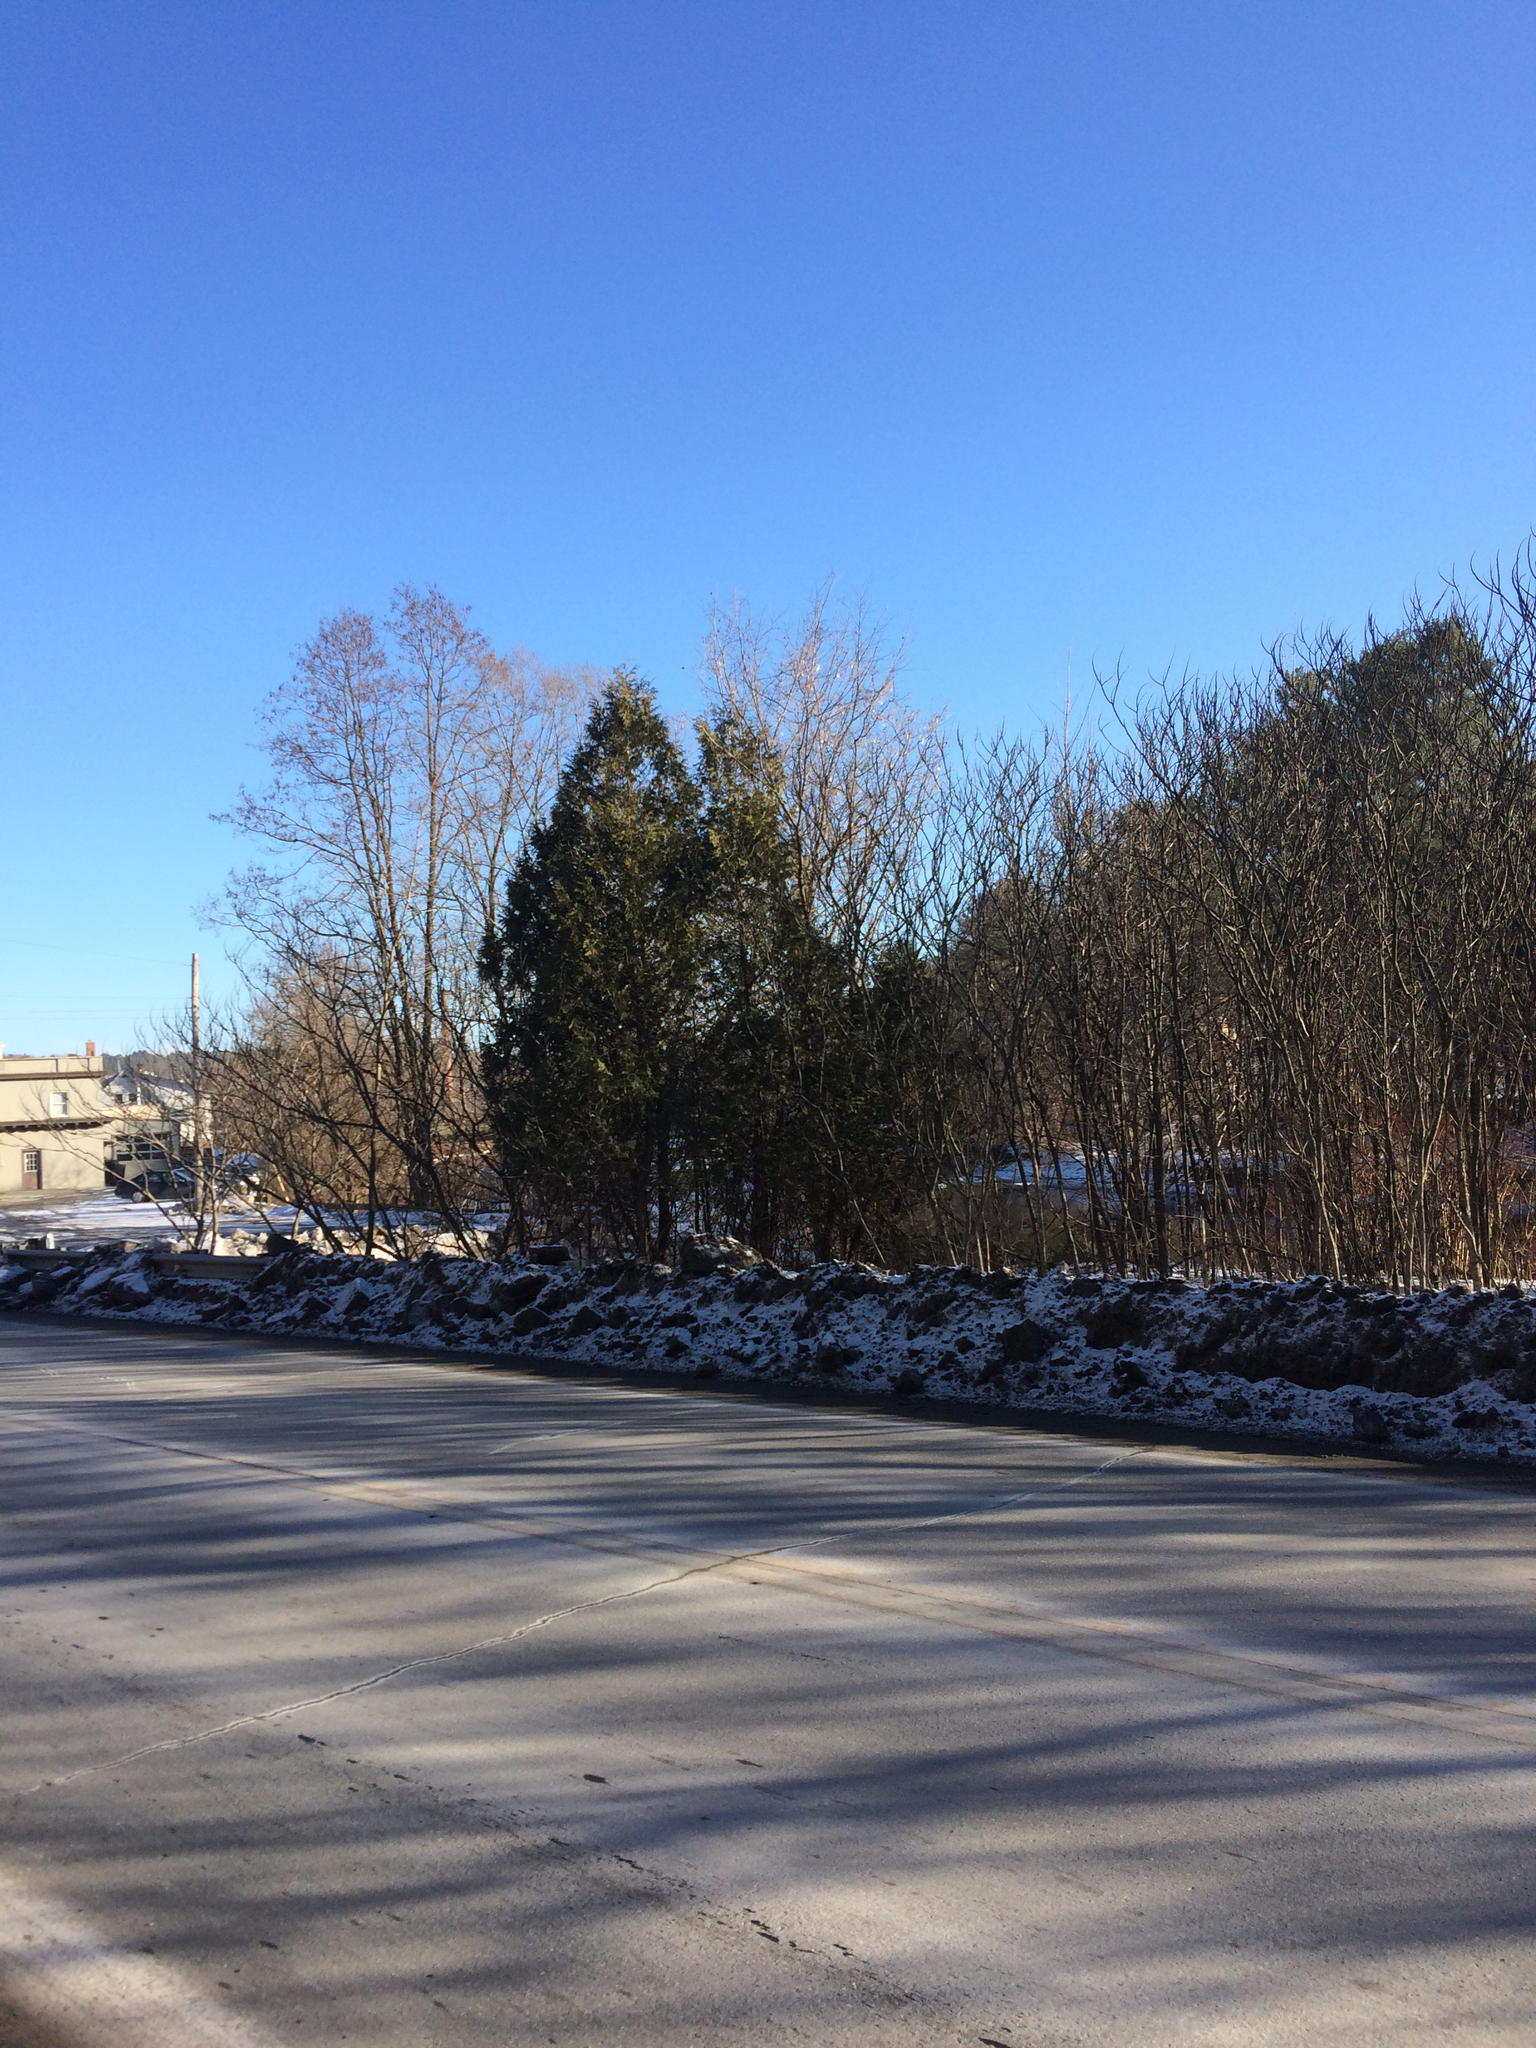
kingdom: Plantae
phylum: Tracheophyta
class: Pinopsida
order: Pinales
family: Cupressaceae
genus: Thuja
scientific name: Thuja occidentalis
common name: Northern white-cedar
